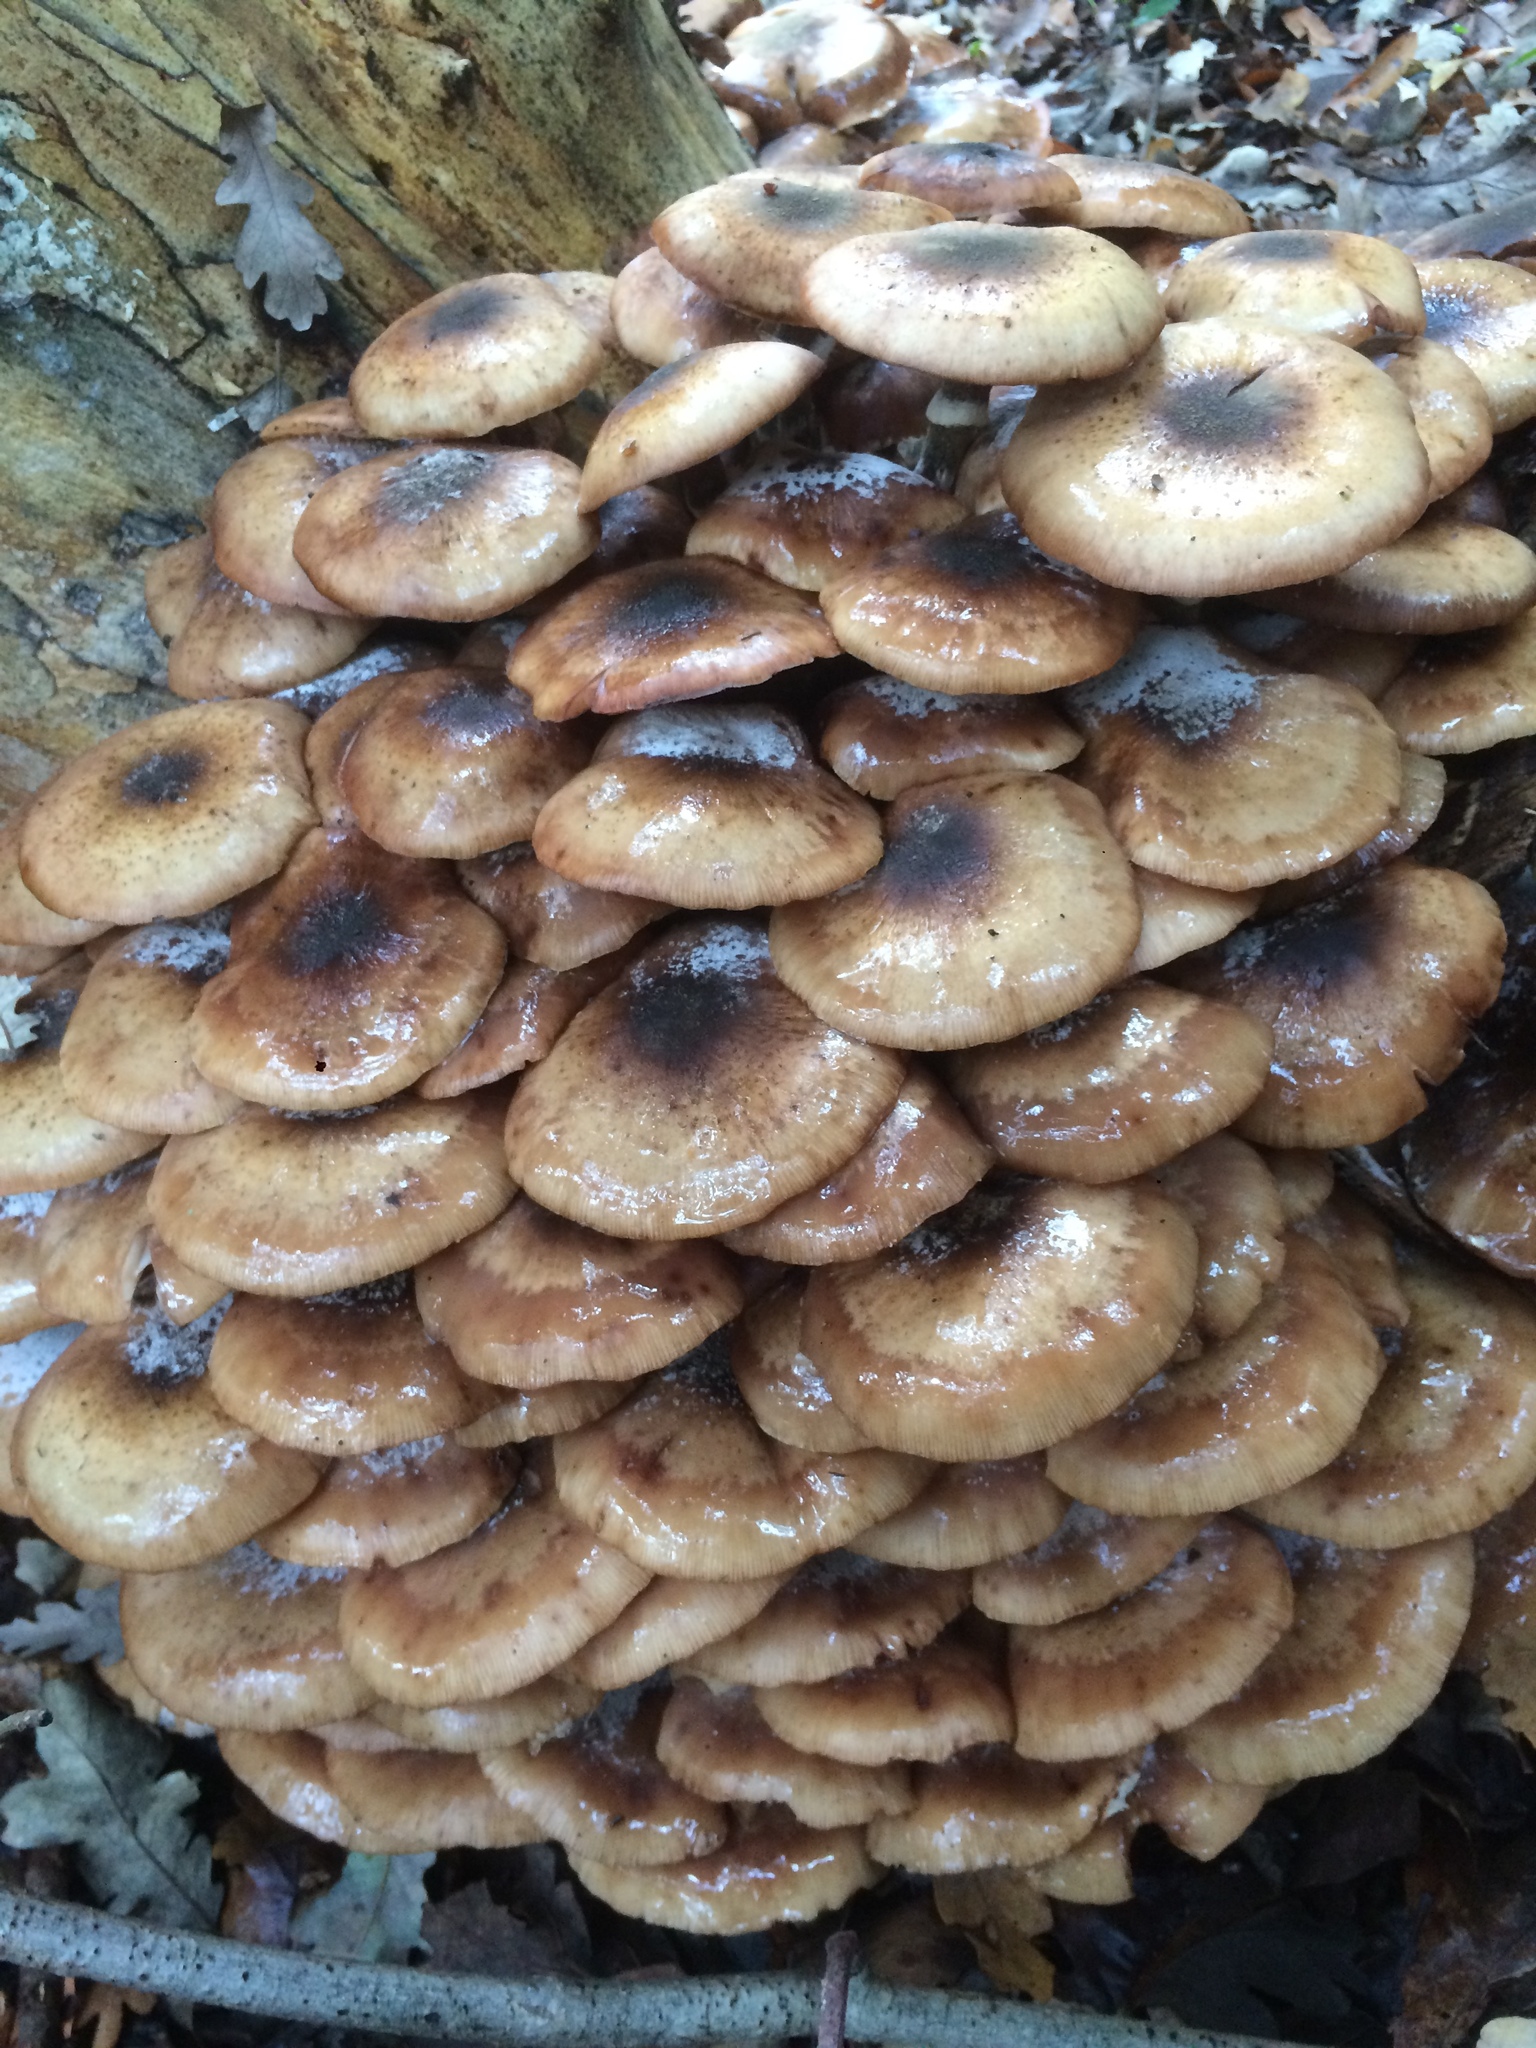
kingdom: Fungi
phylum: Basidiomycota
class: Agaricomycetes
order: Agaricales
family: Physalacriaceae
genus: Armillaria
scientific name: Armillaria mellea
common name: Honey fungus
